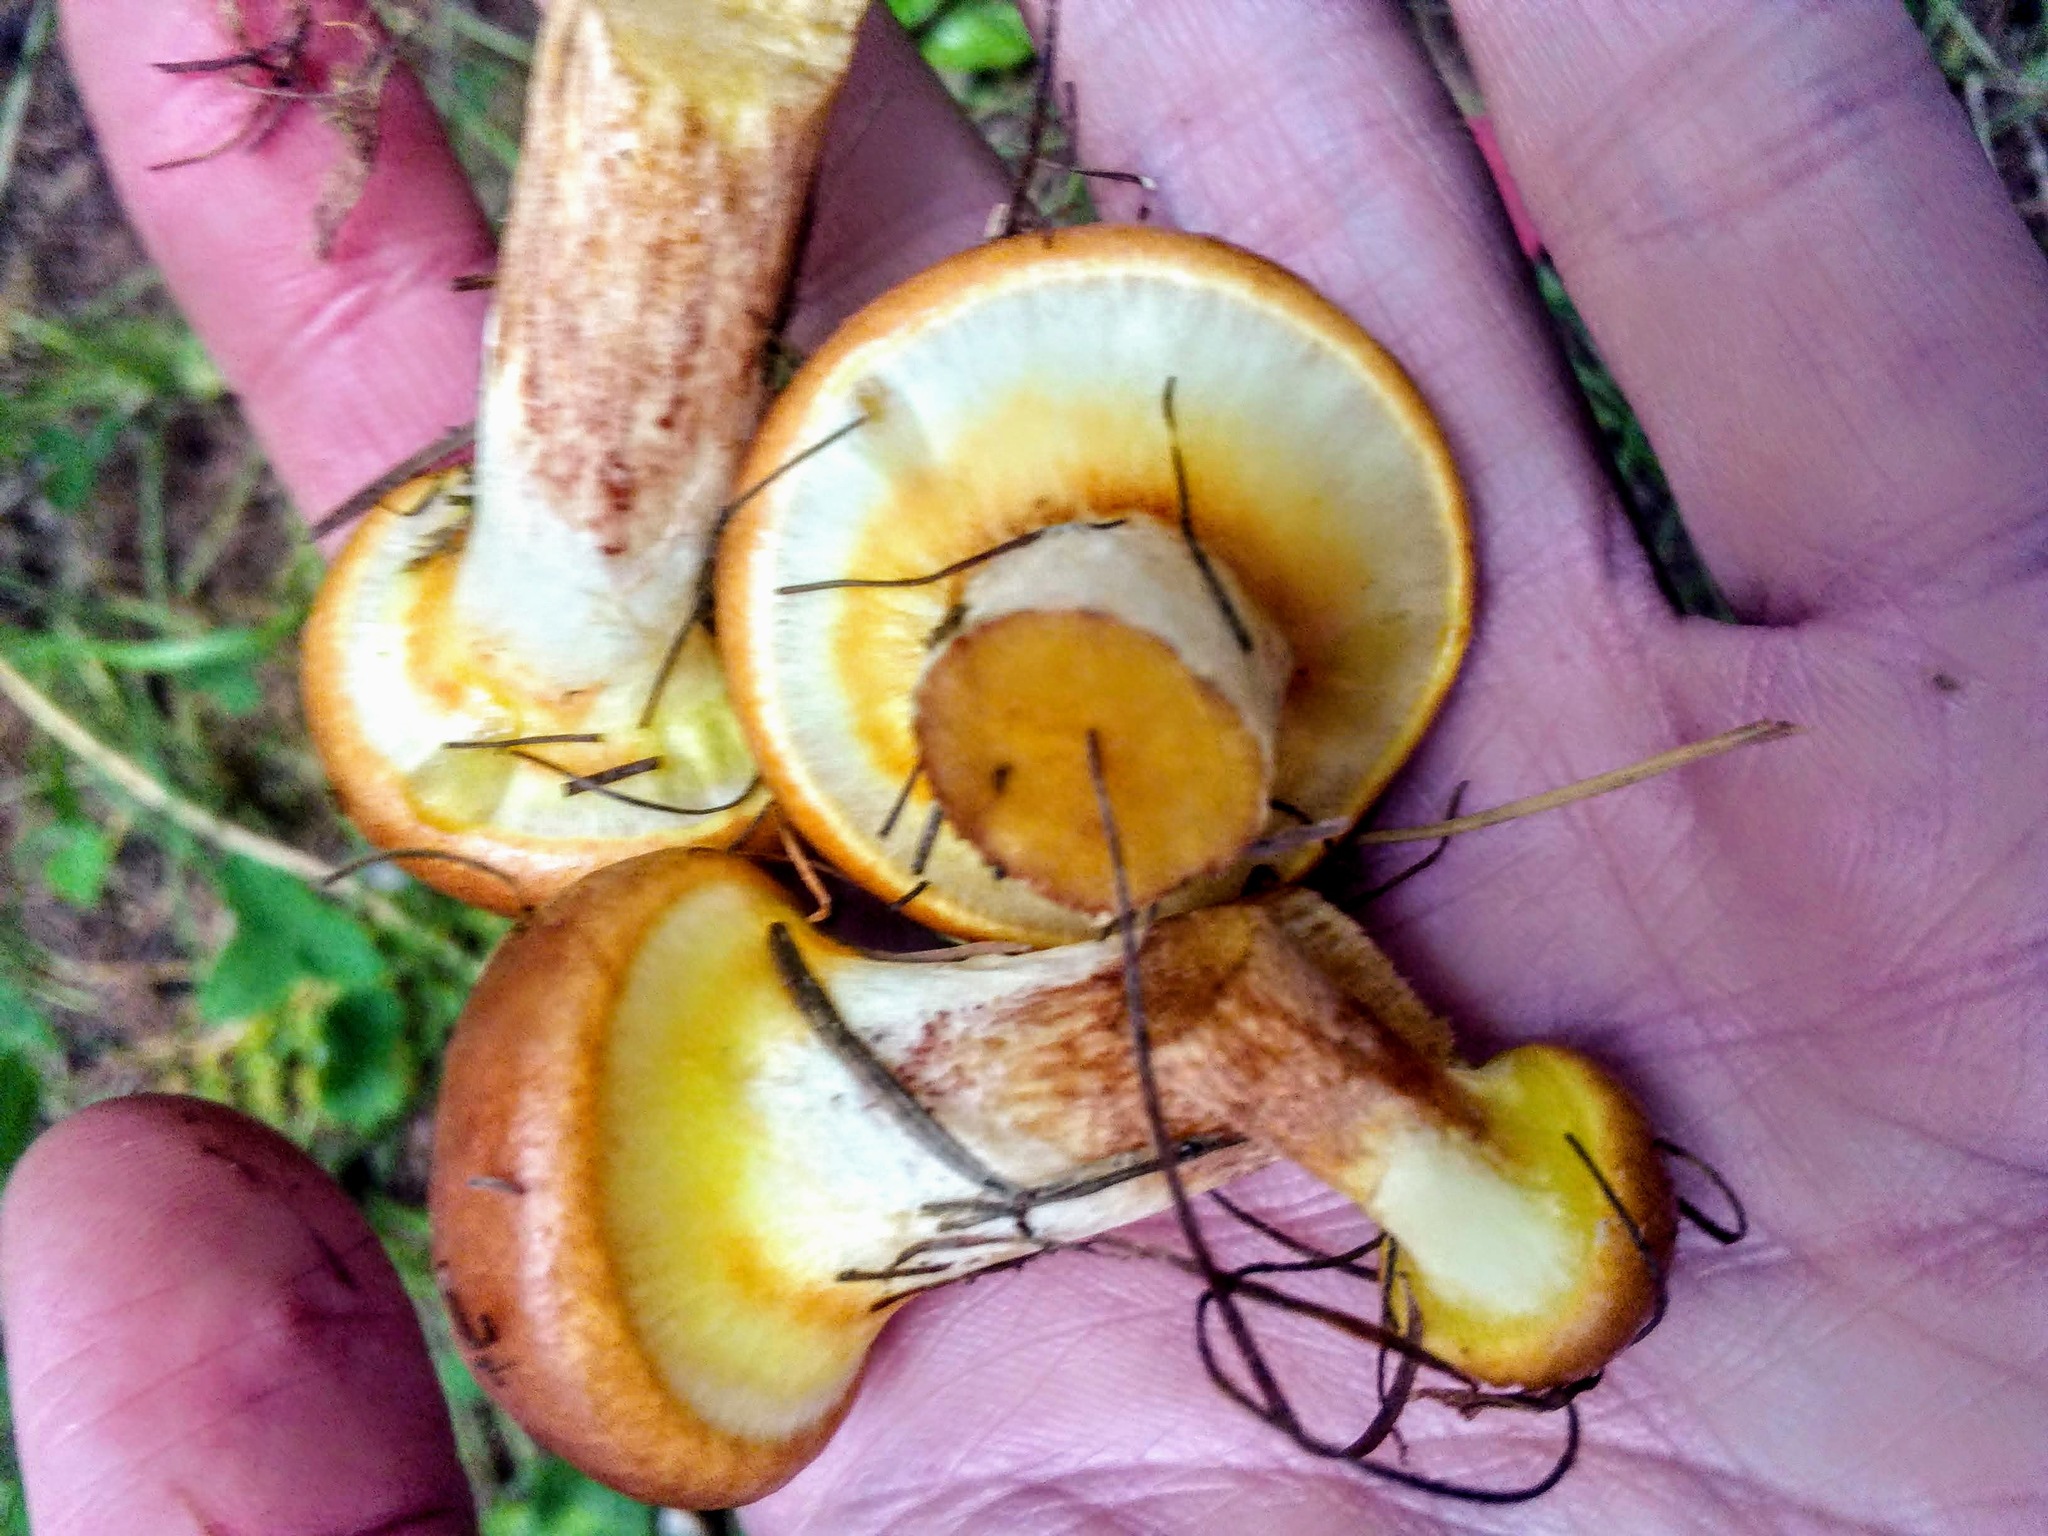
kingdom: Fungi
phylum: Basidiomycota
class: Agaricomycetes
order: Boletales
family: Suillaceae
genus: Suillus
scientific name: Suillus grevillei
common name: Larch bolete
